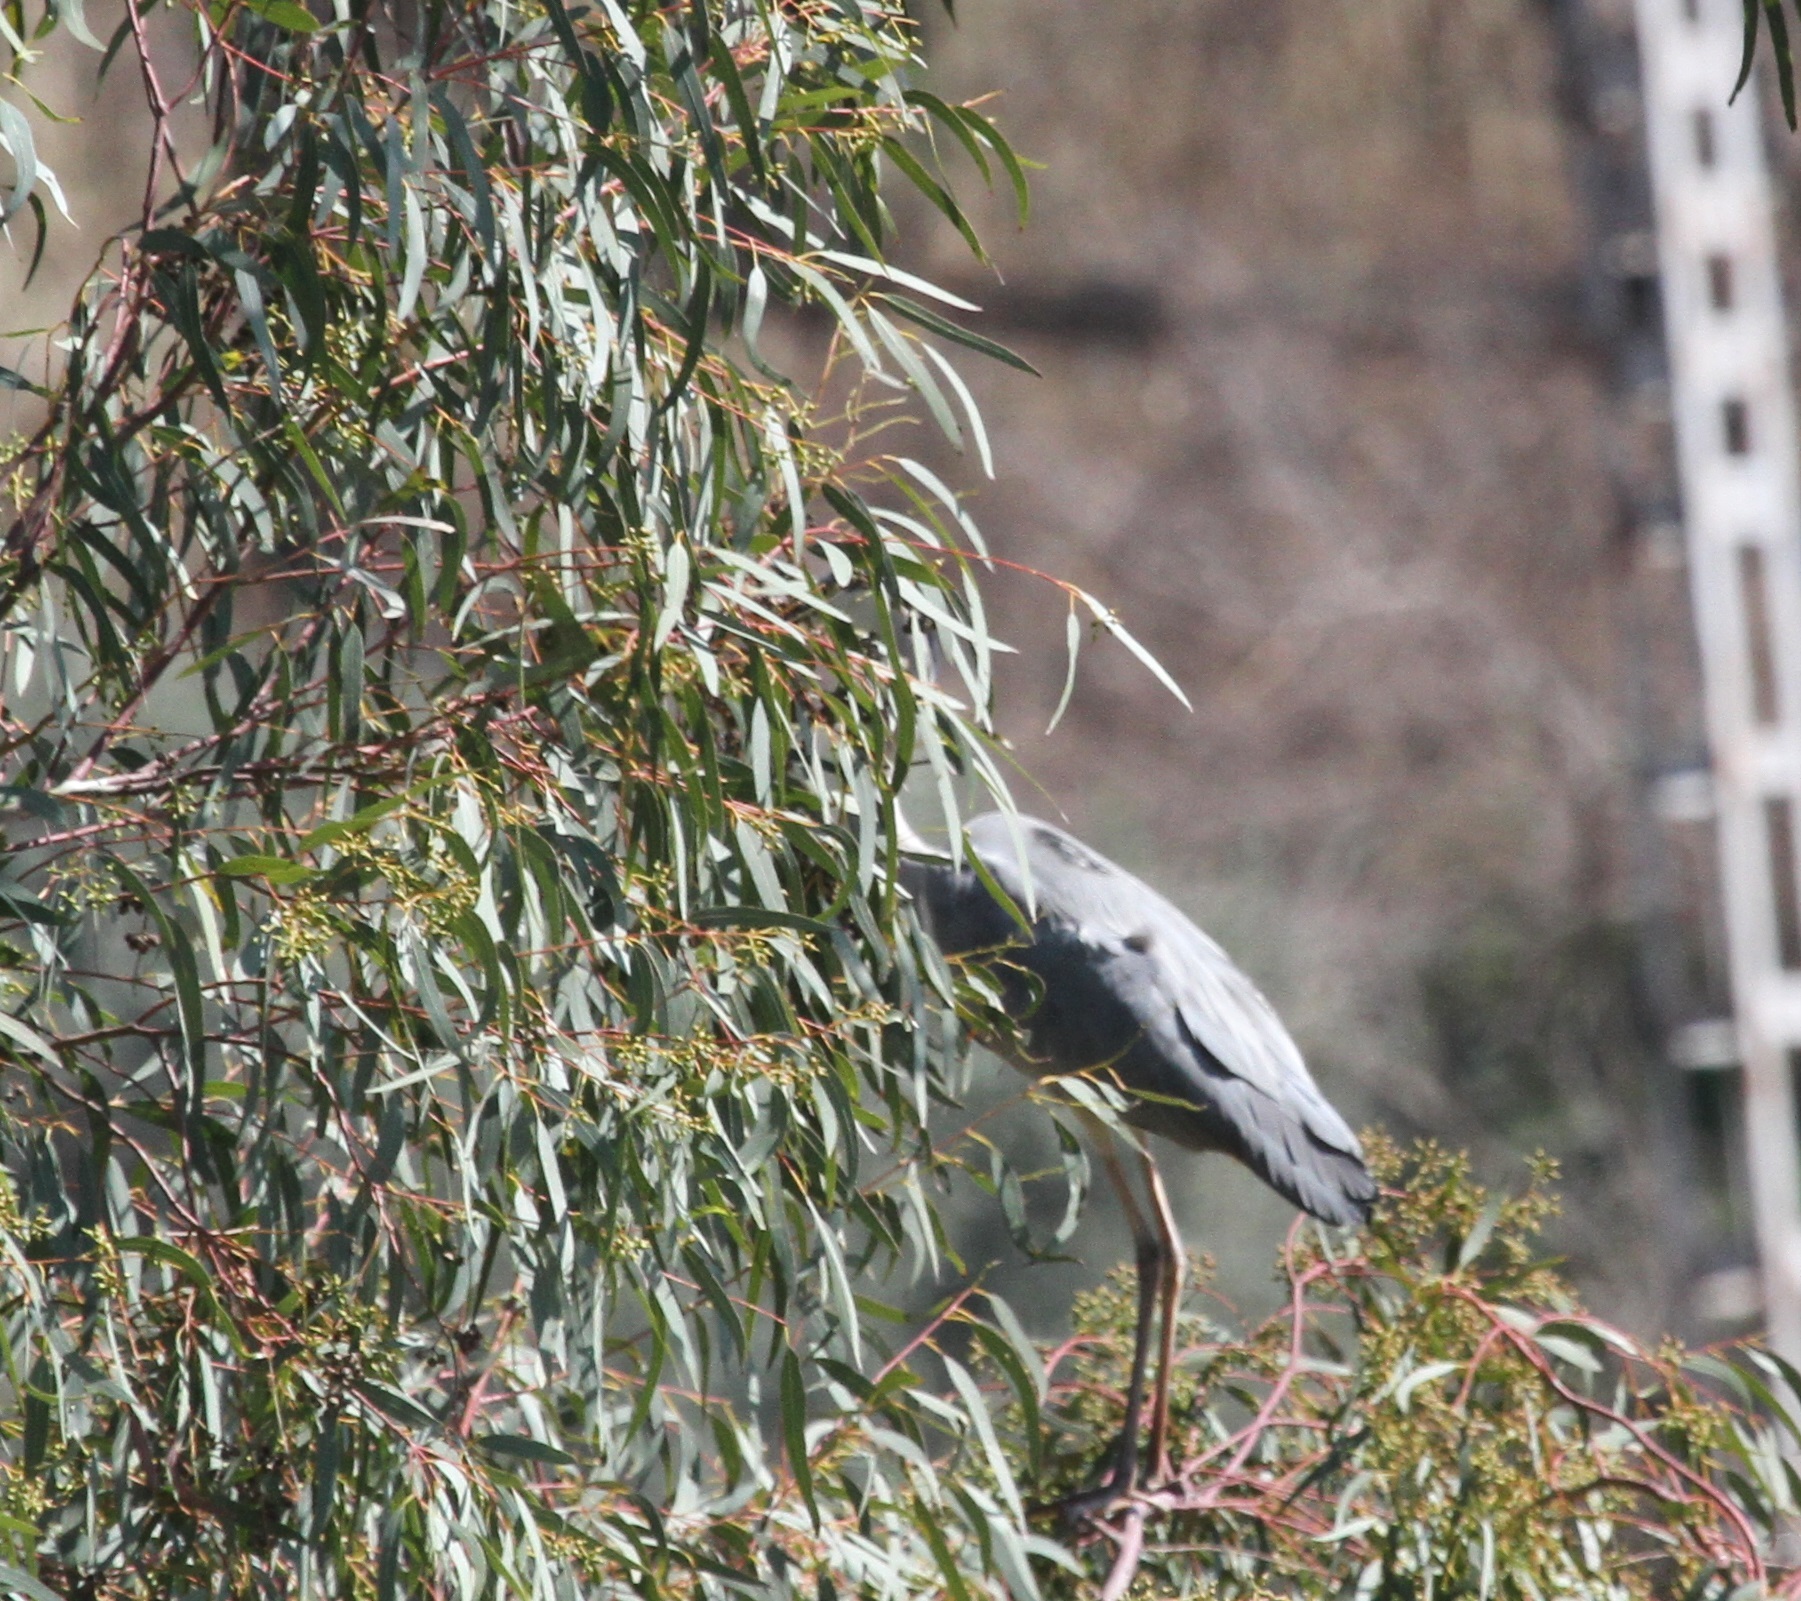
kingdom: Animalia
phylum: Chordata
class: Aves
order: Pelecaniformes
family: Ardeidae
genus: Ardea
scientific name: Ardea cinerea
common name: Grey heron
